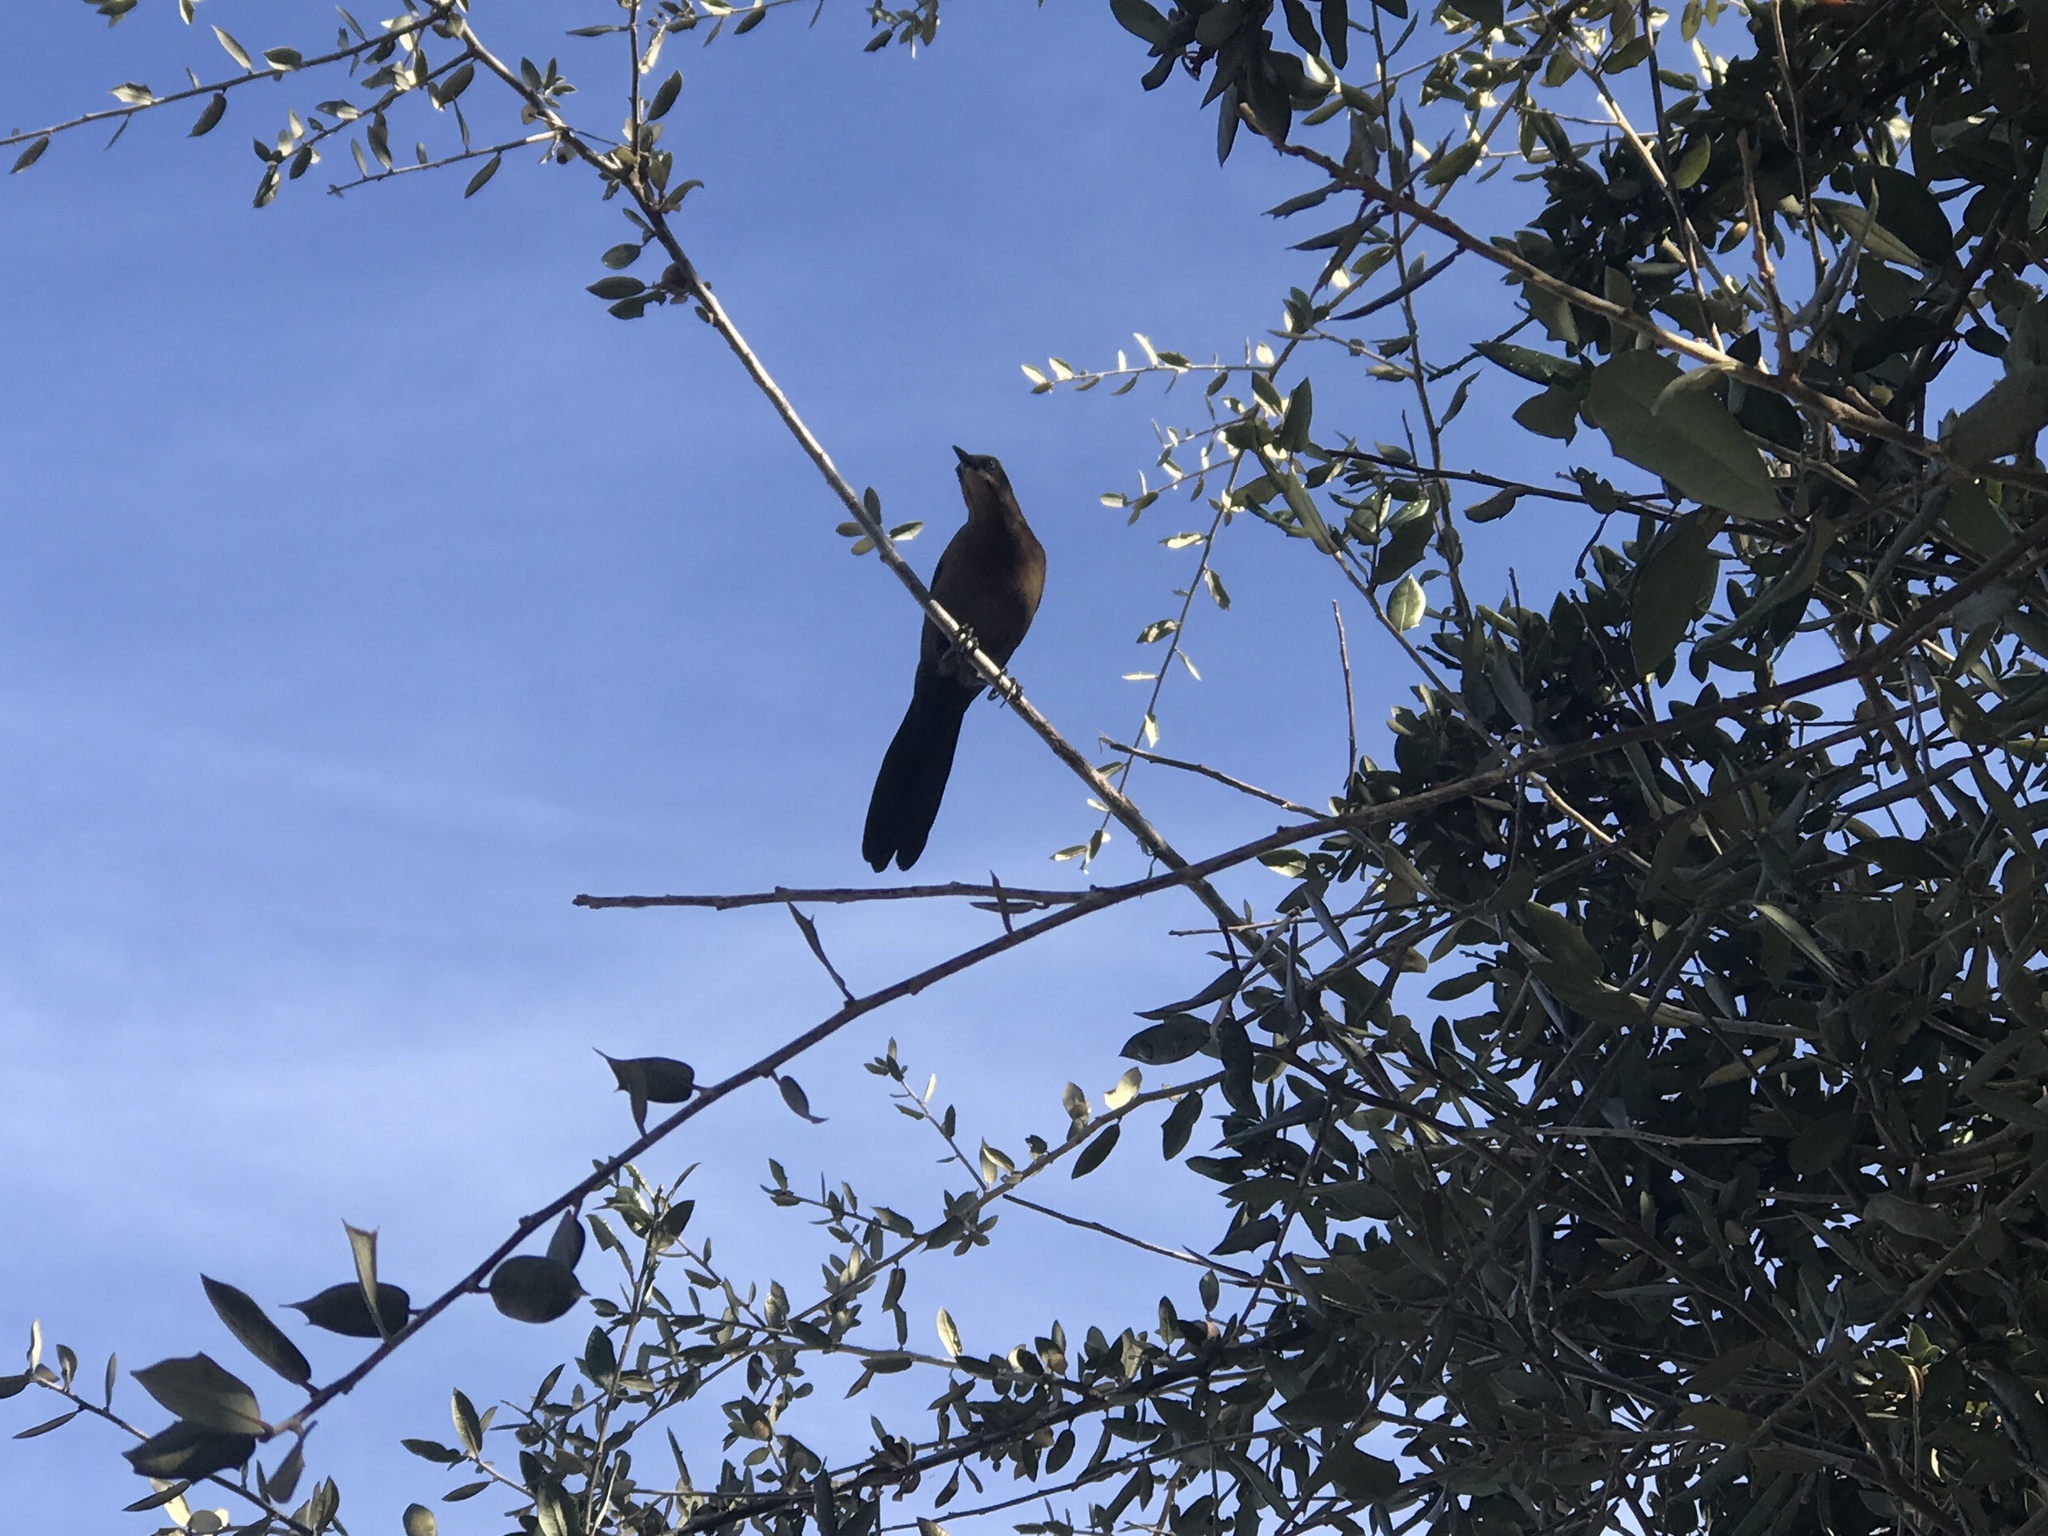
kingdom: Animalia
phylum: Chordata
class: Aves
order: Passeriformes
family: Icteridae
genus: Quiscalus
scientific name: Quiscalus mexicanus
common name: Great-tailed grackle
